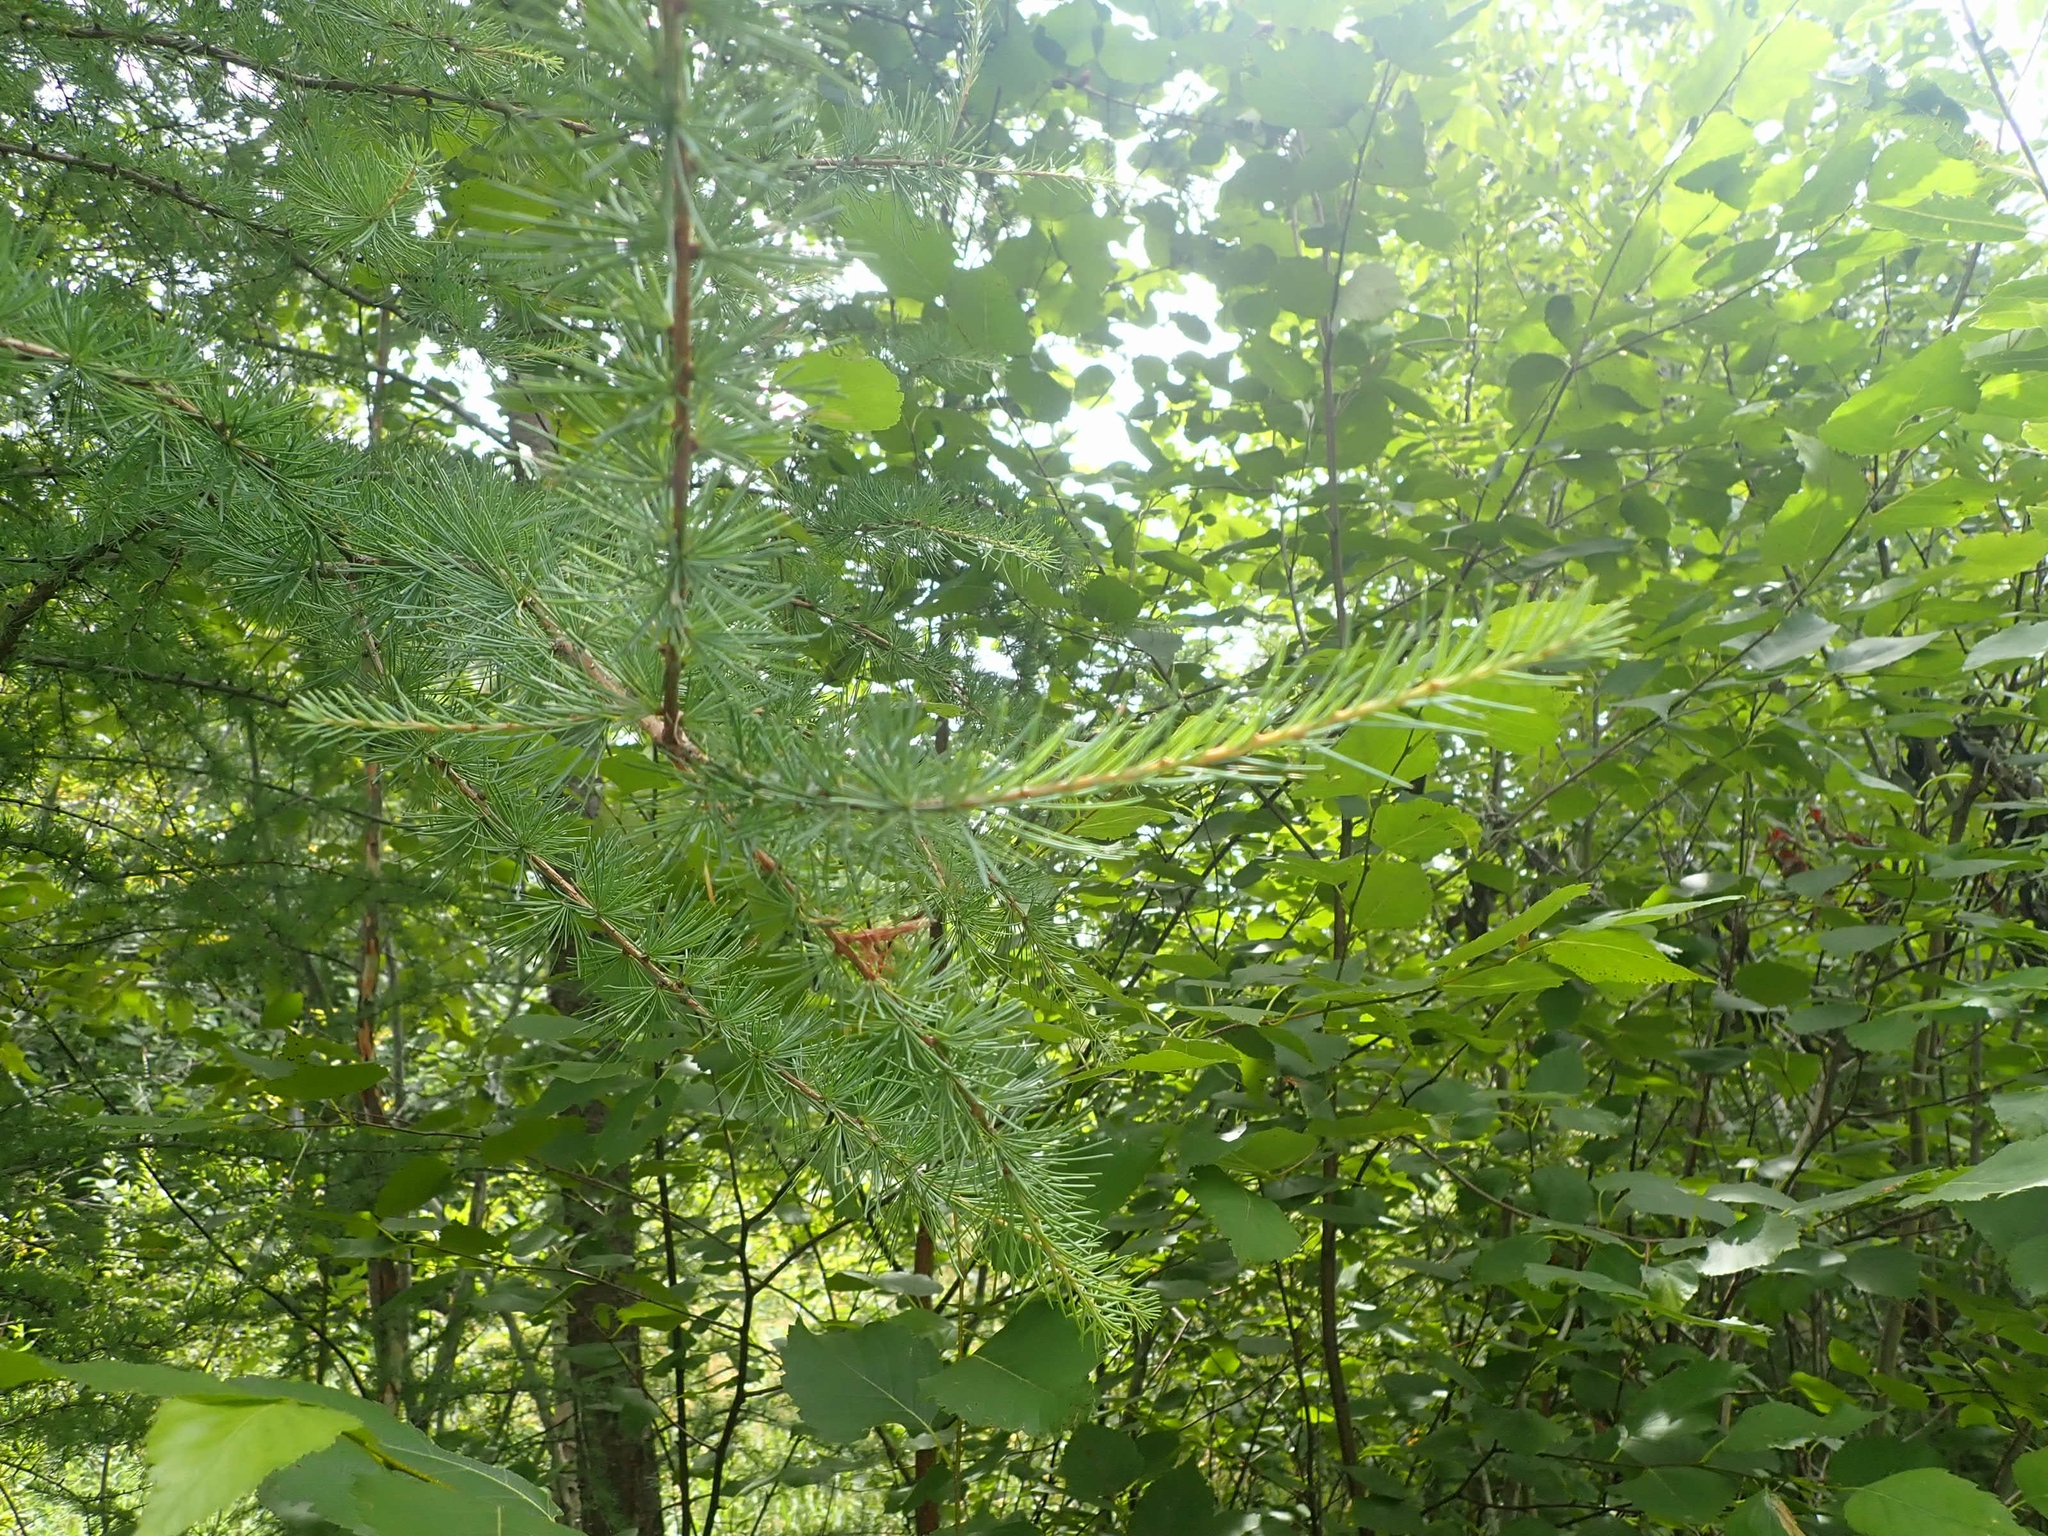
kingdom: Plantae
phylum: Tracheophyta
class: Pinopsida
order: Pinales
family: Pinaceae
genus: Larix
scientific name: Larix laricina
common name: American larch
